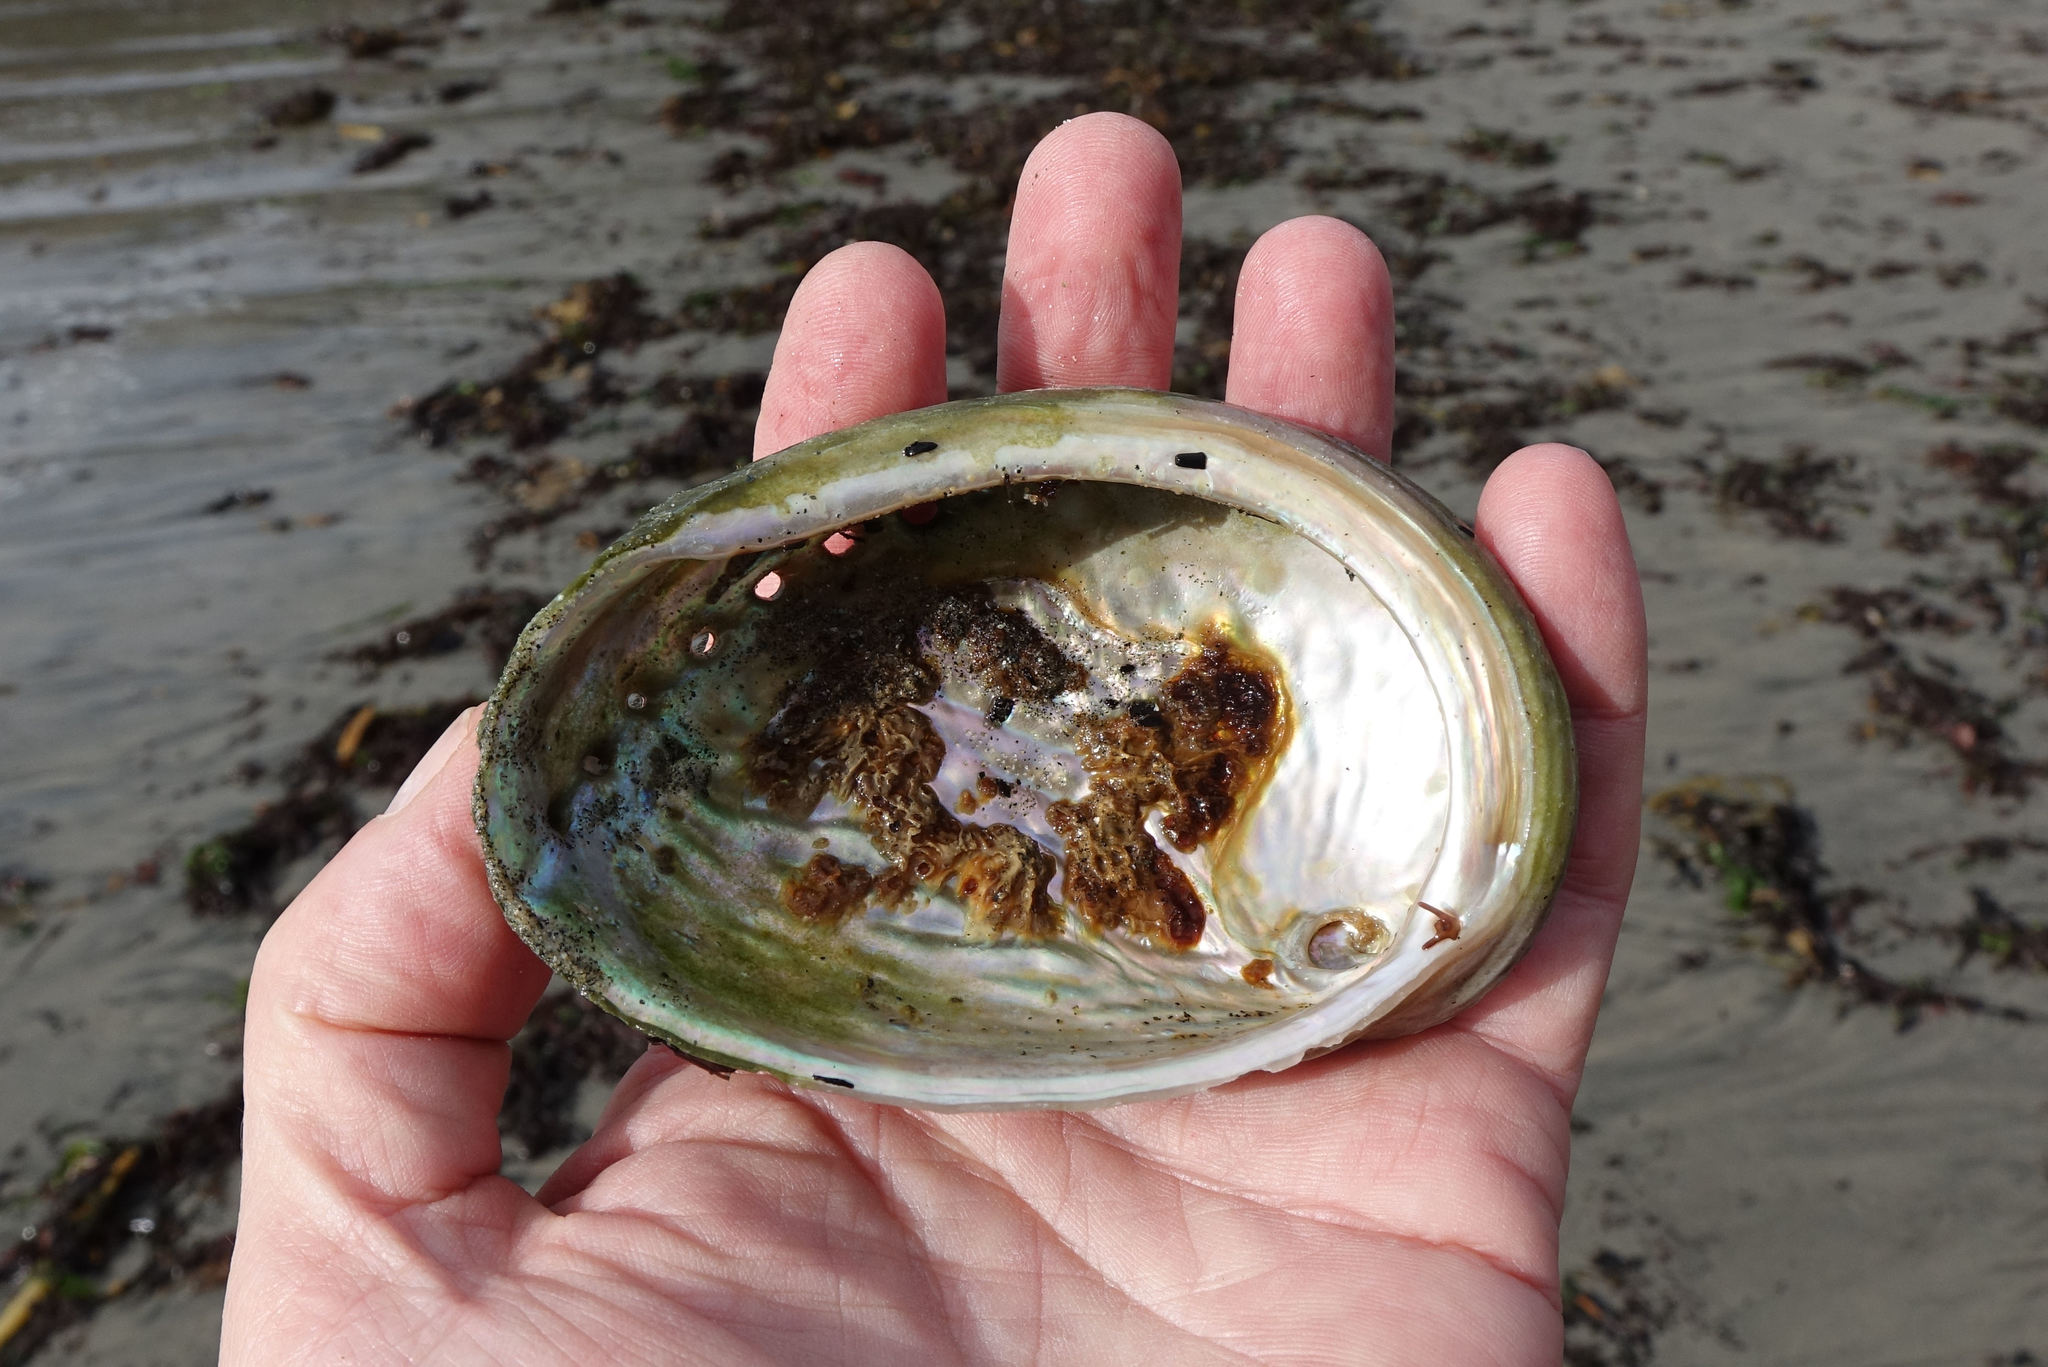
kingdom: Animalia
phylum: Mollusca
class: Gastropoda
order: Lepetellida
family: Haliotidae
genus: Haliotis
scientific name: Haliotis australis
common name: Silver abalone
